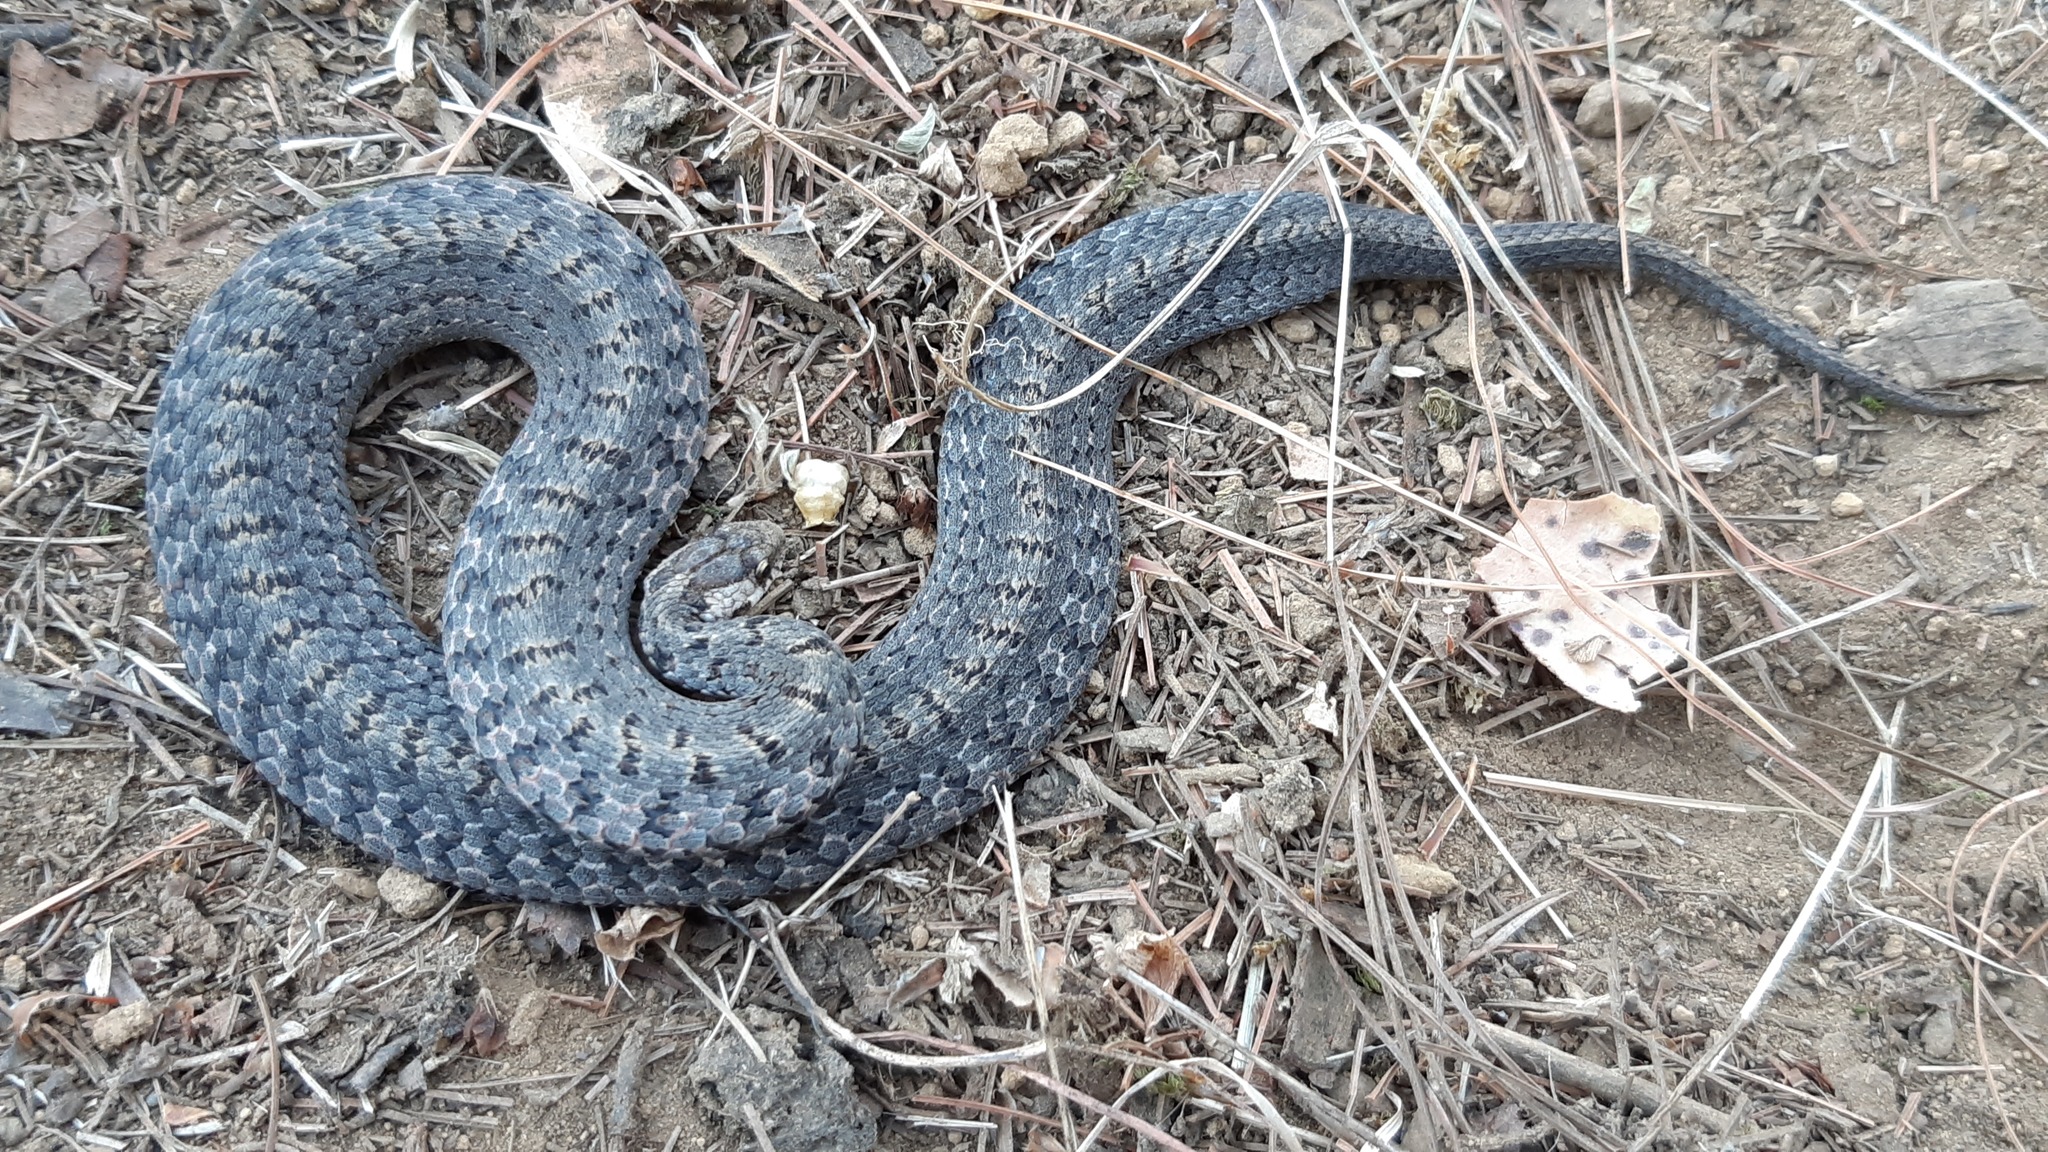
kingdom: Animalia
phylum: Chordata
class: Squamata
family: Colubridae
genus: Storeria
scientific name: Storeria storerioides
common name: Mexican brown snake
